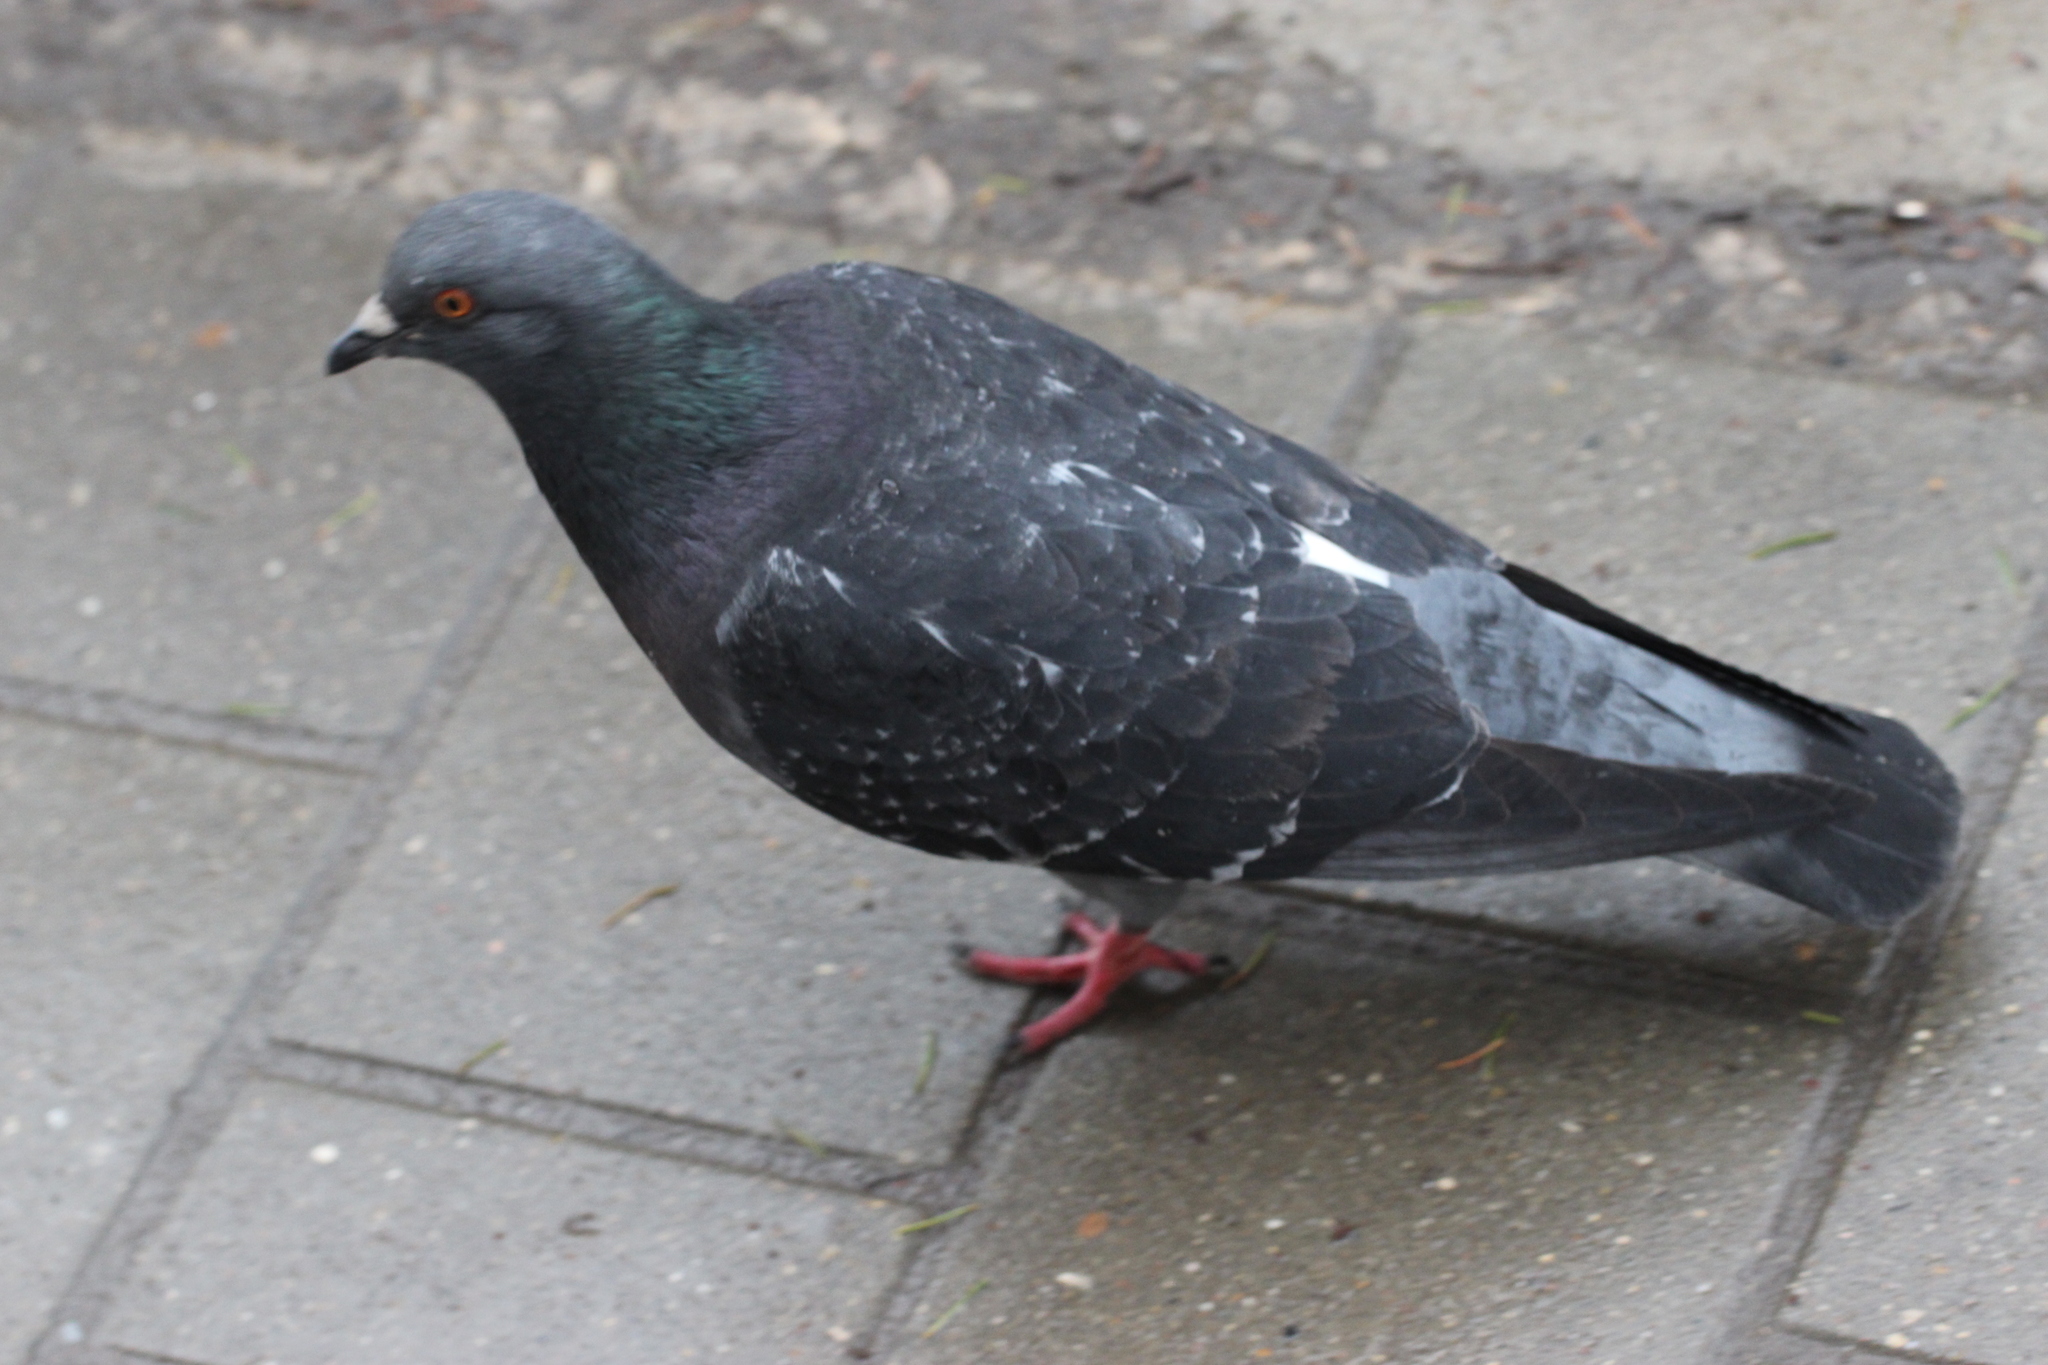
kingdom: Animalia
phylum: Chordata
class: Aves
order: Columbiformes
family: Columbidae
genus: Columba
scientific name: Columba livia
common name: Rock pigeon
